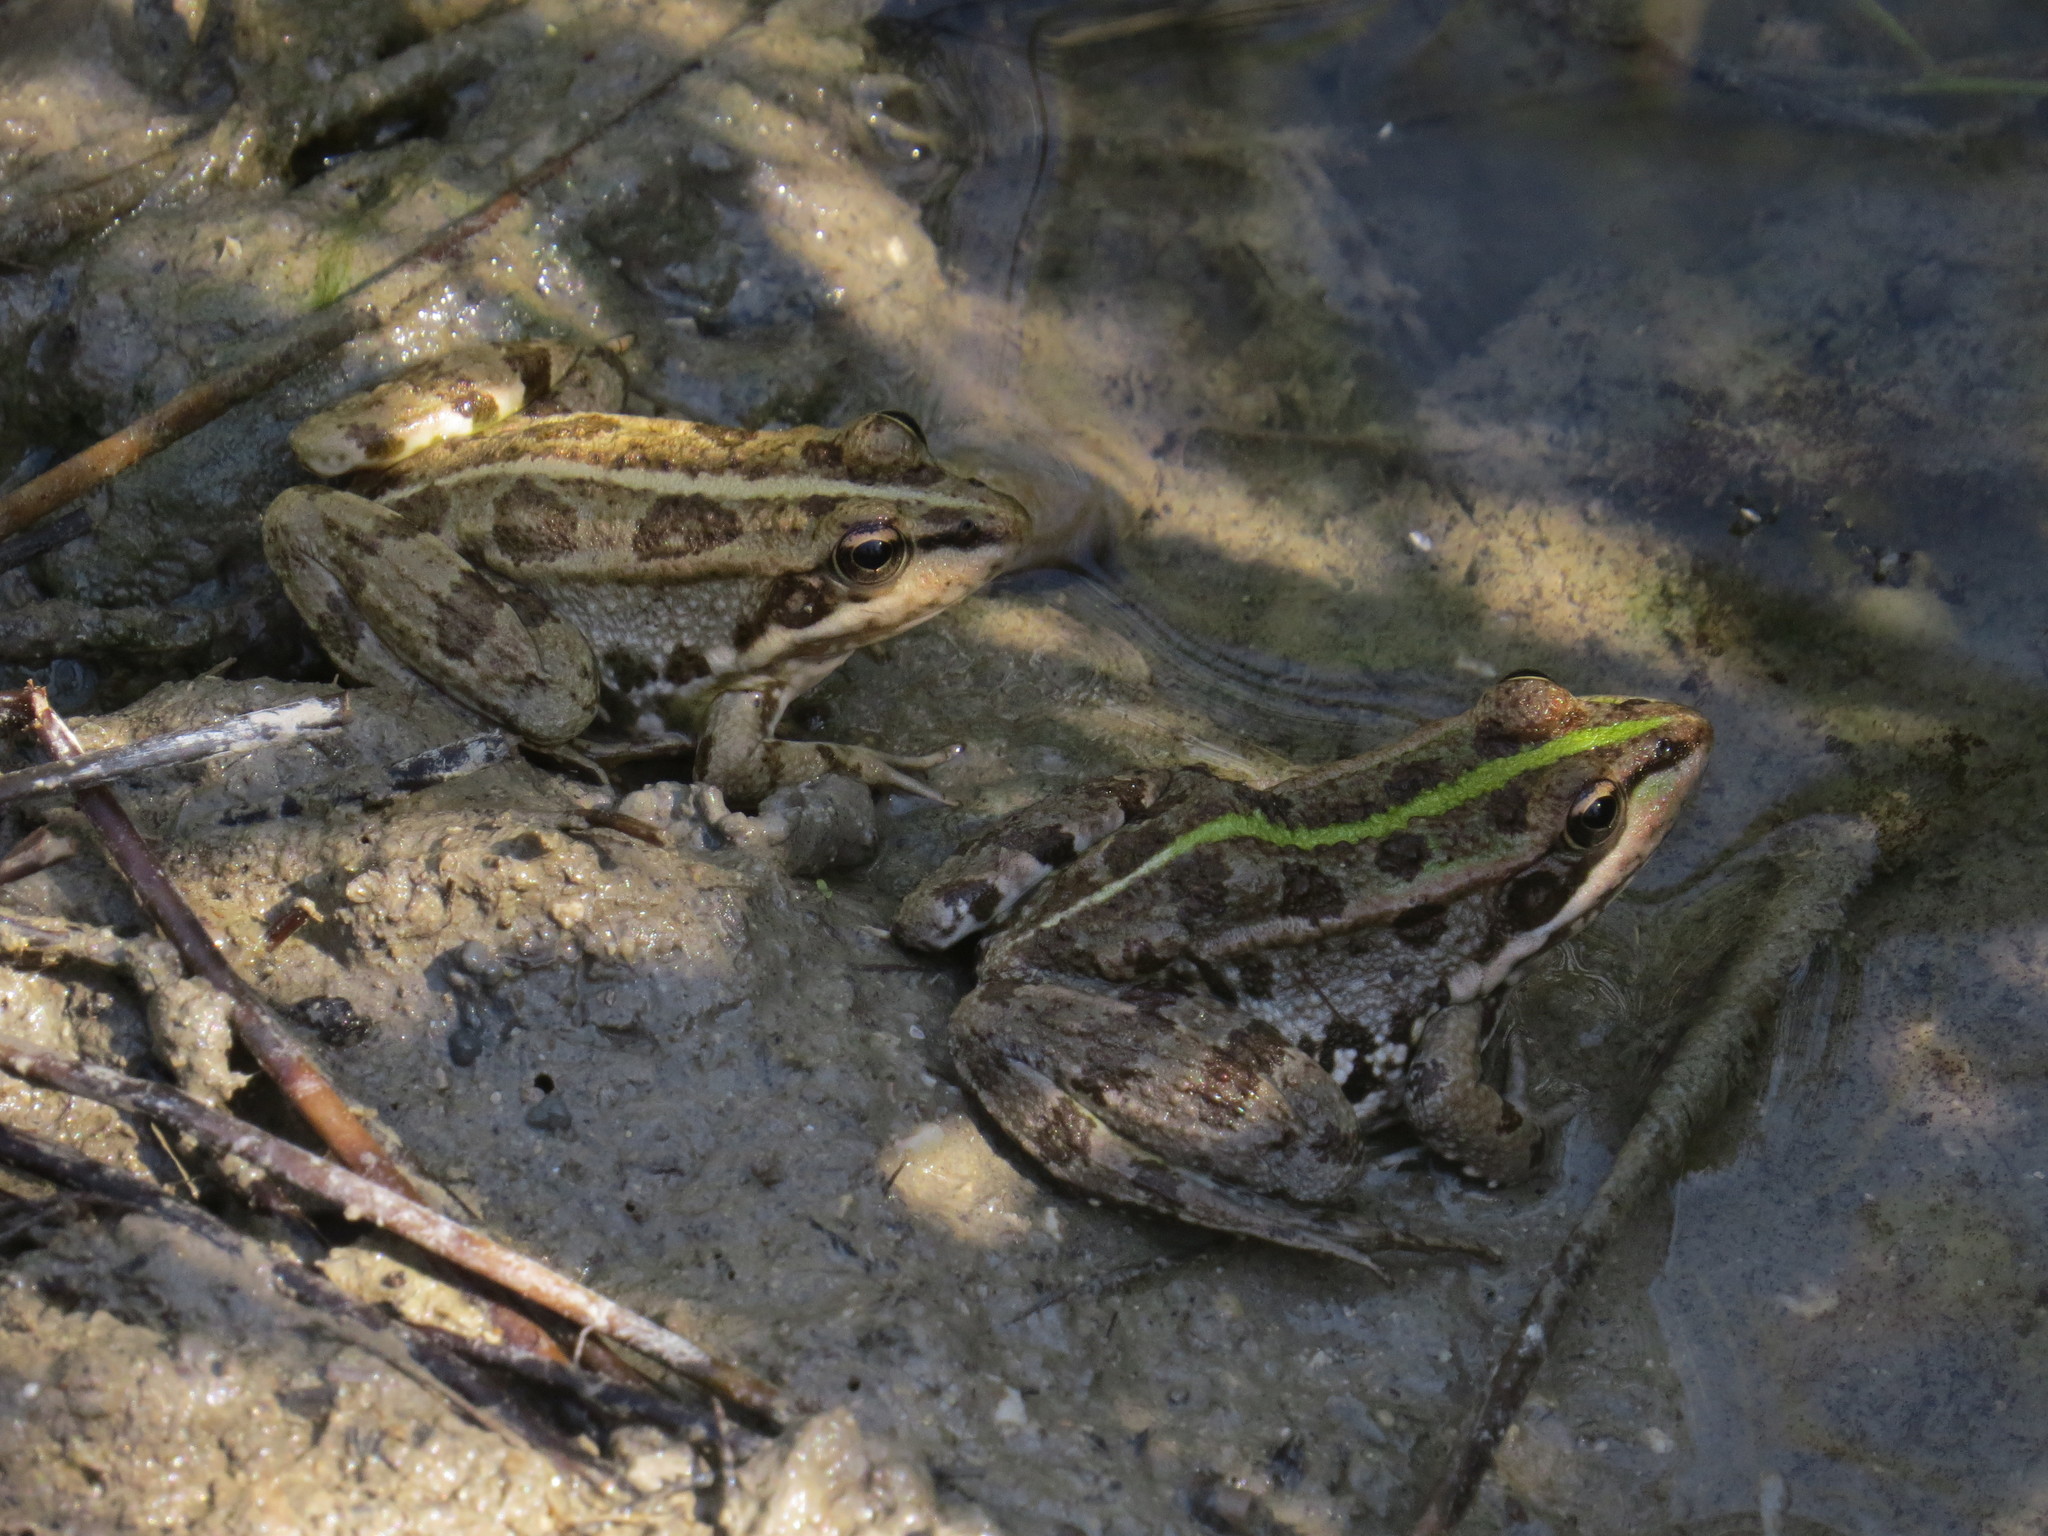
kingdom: Animalia
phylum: Chordata
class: Amphibia
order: Anura
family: Ranidae
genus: Pelophylax
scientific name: Pelophylax
